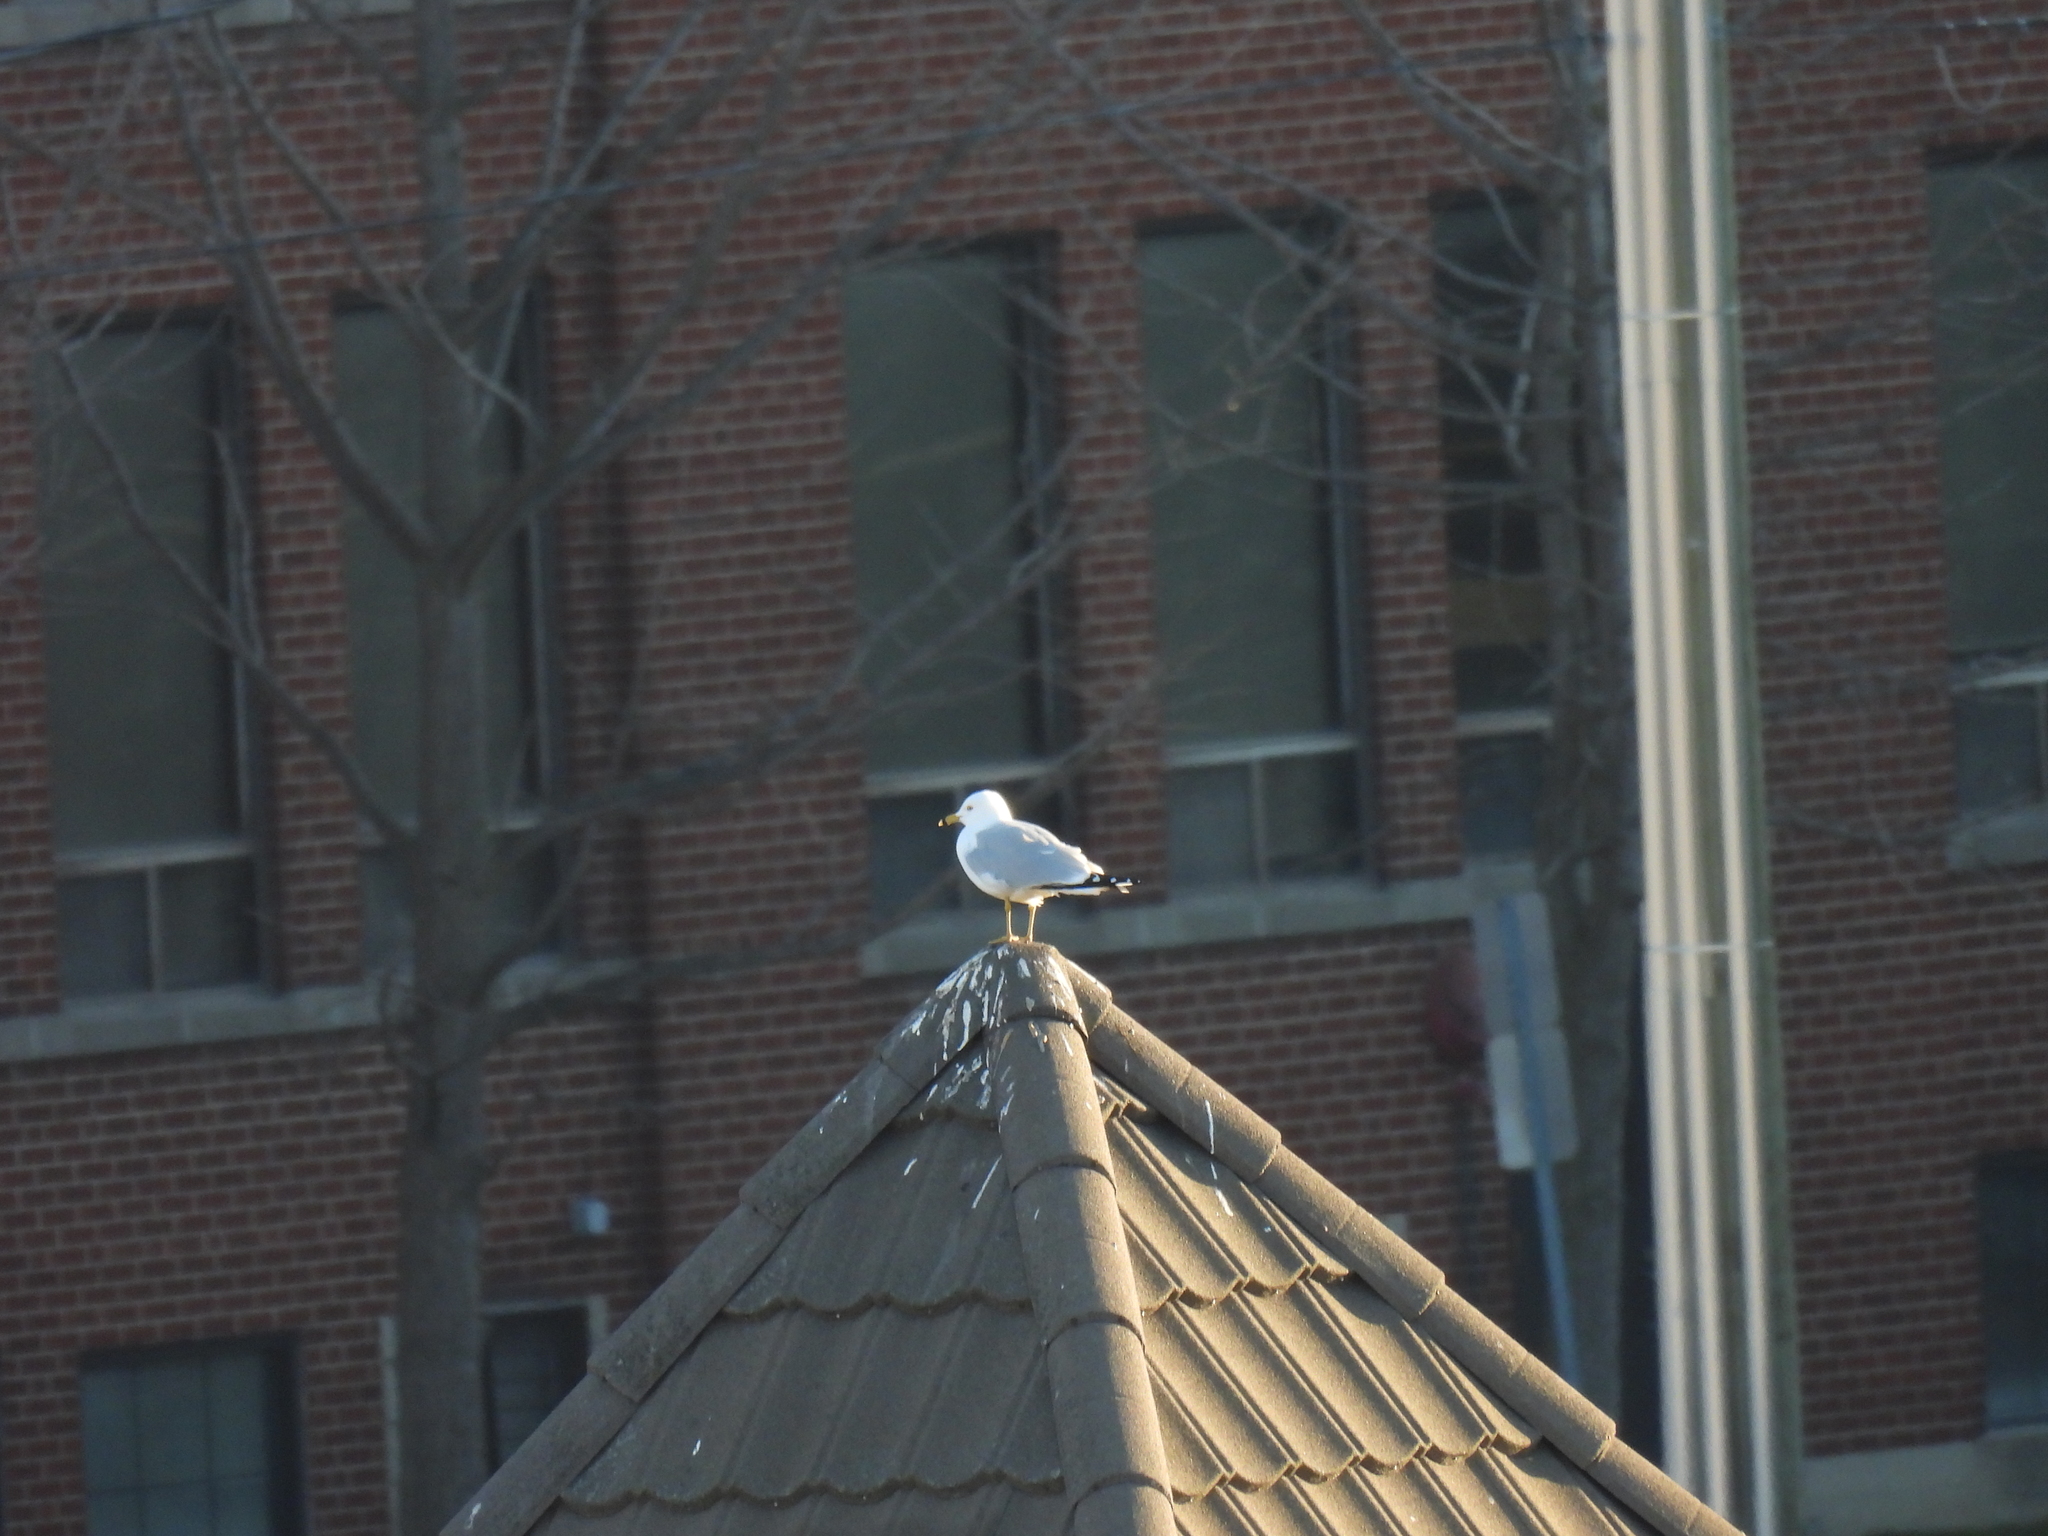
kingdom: Animalia
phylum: Chordata
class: Aves
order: Charadriiformes
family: Laridae
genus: Larus
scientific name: Larus delawarensis
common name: Ring-billed gull
